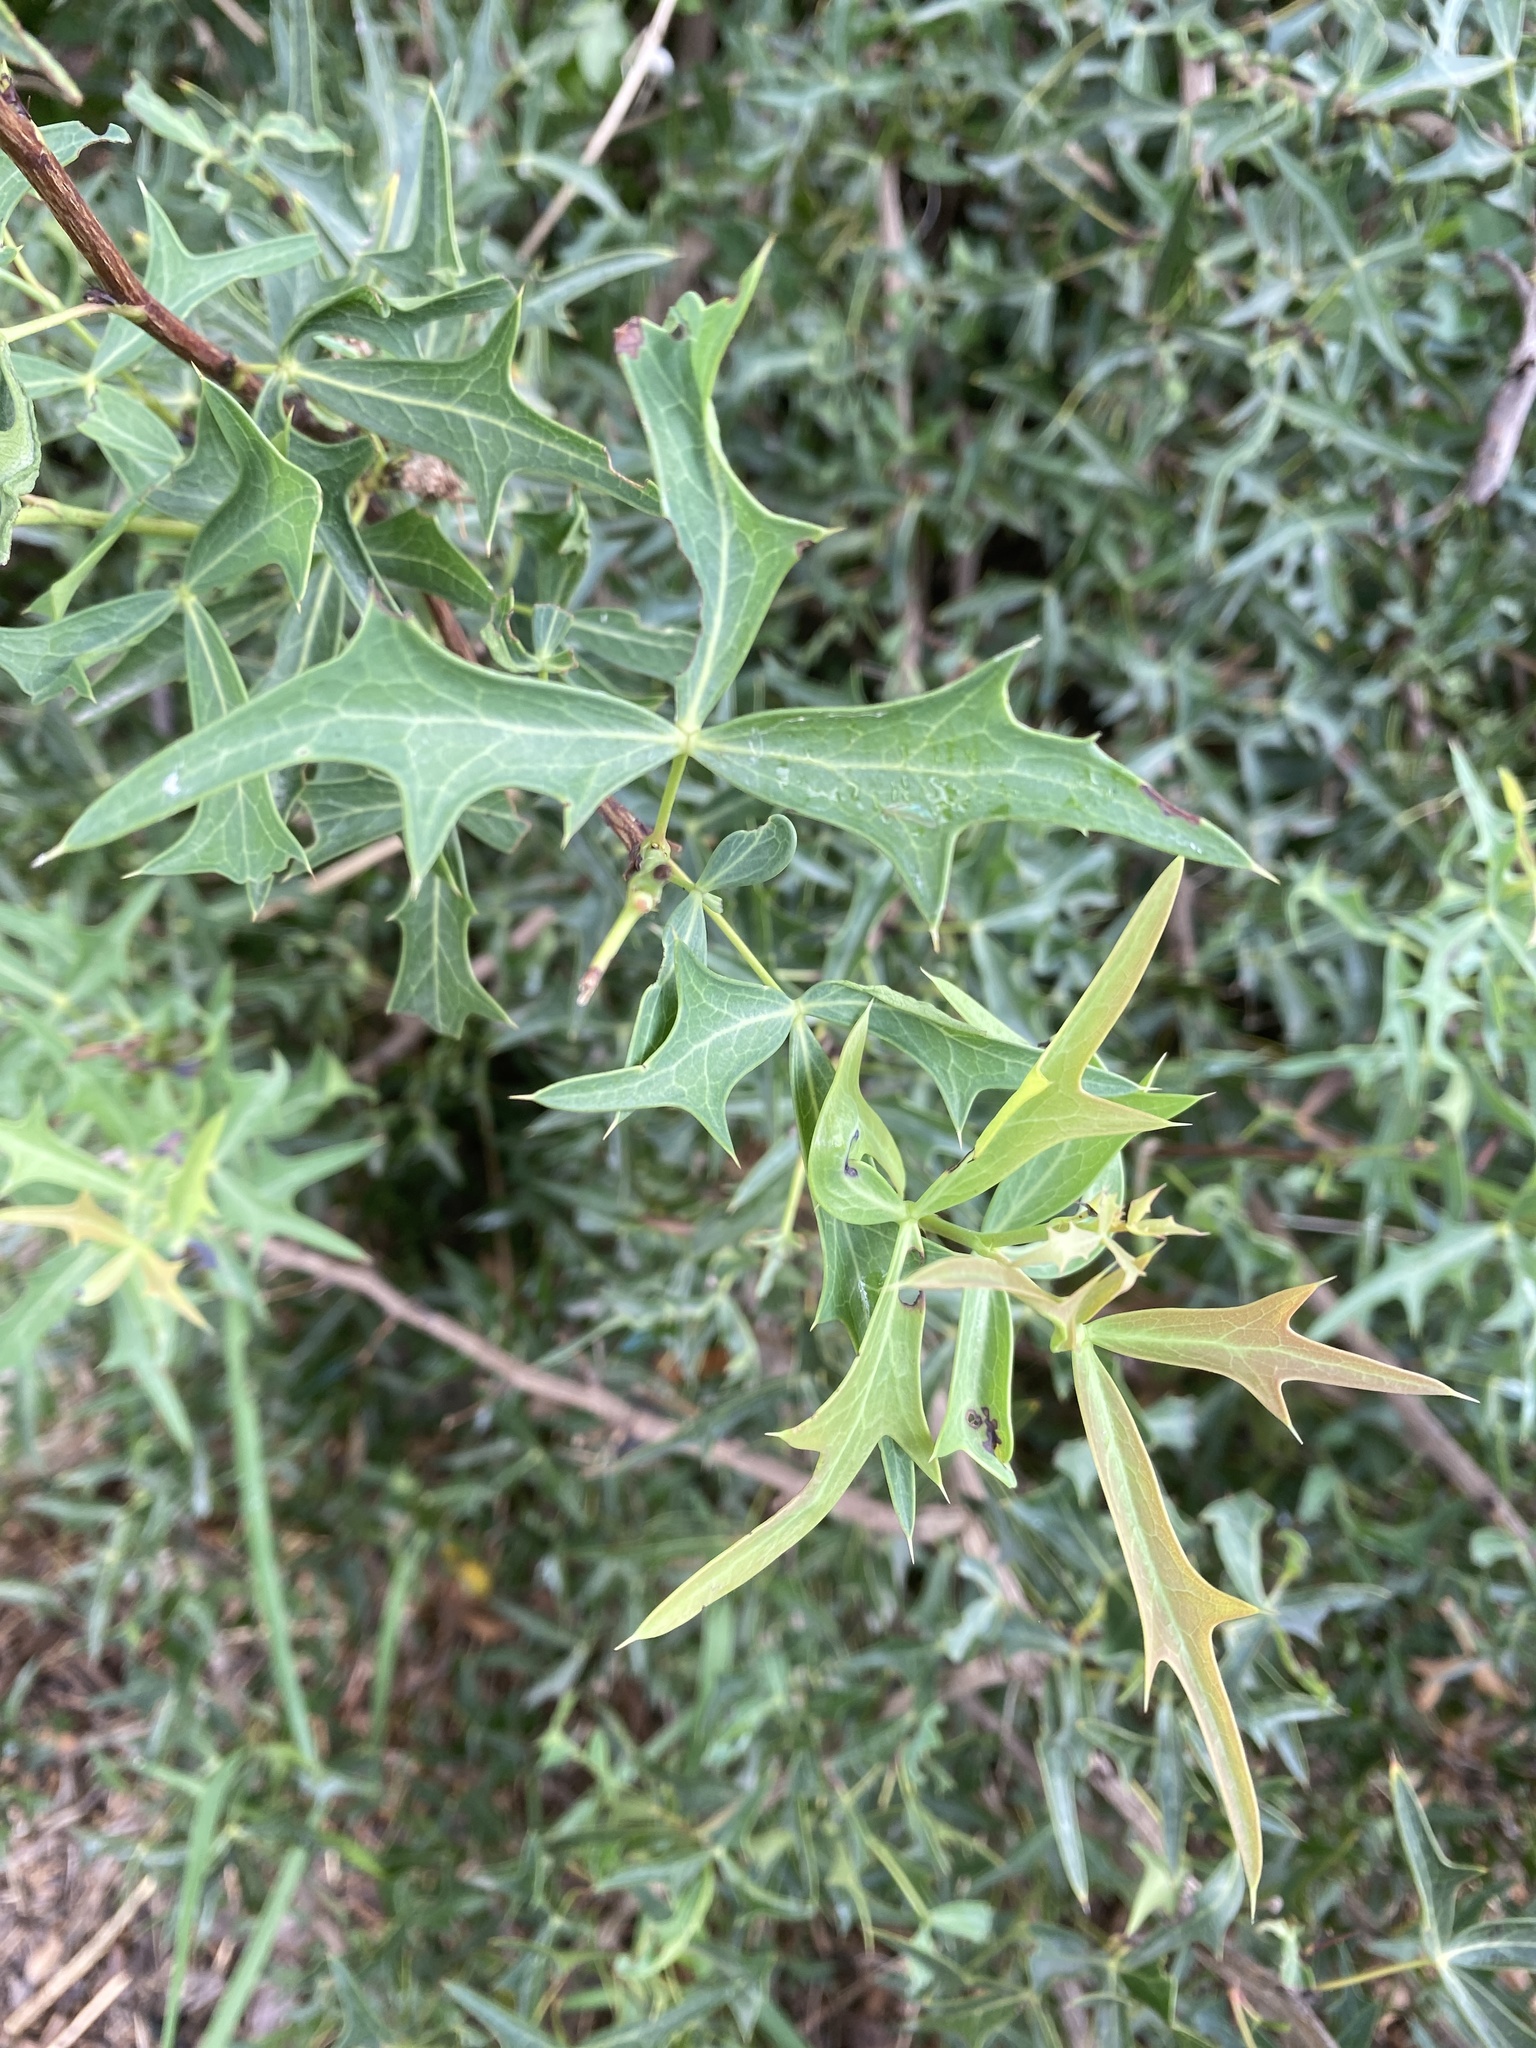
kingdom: Plantae
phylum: Tracheophyta
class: Magnoliopsida
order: Ranunculales
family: Berberidaceae
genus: Alloberberis
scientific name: Alloberberis trifoliolata
